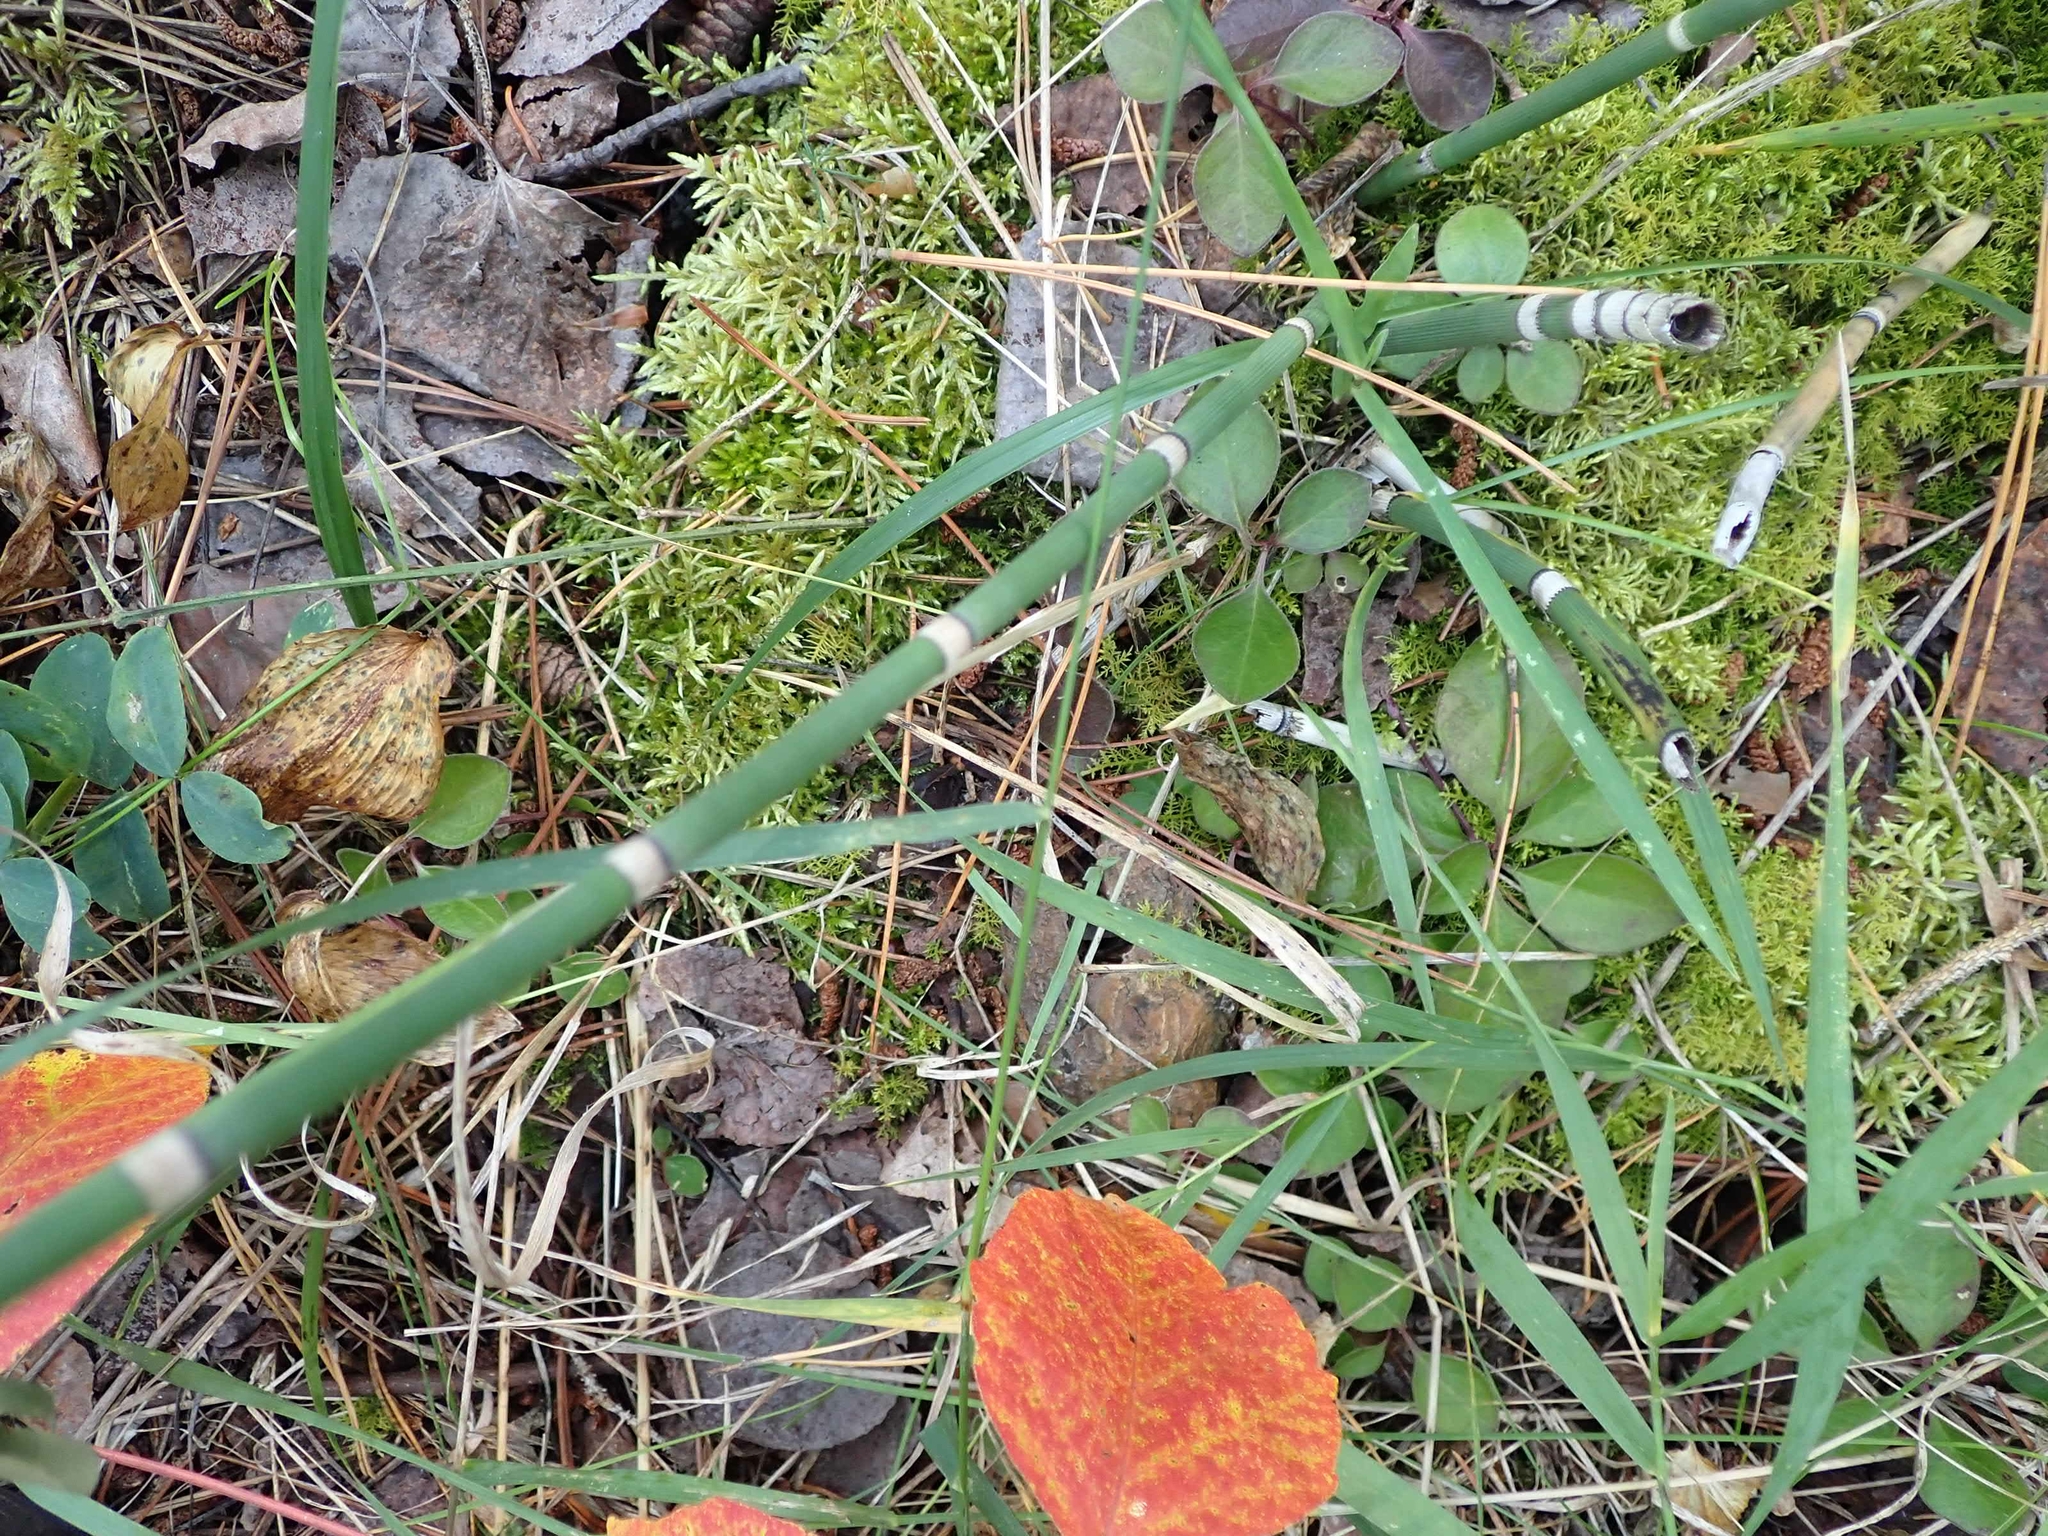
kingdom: Plantae
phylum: Tracheophyta
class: Polypodiopsida
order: Equisetales
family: Equisetaceae
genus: Equisetum
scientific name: Equisetum praealtum
